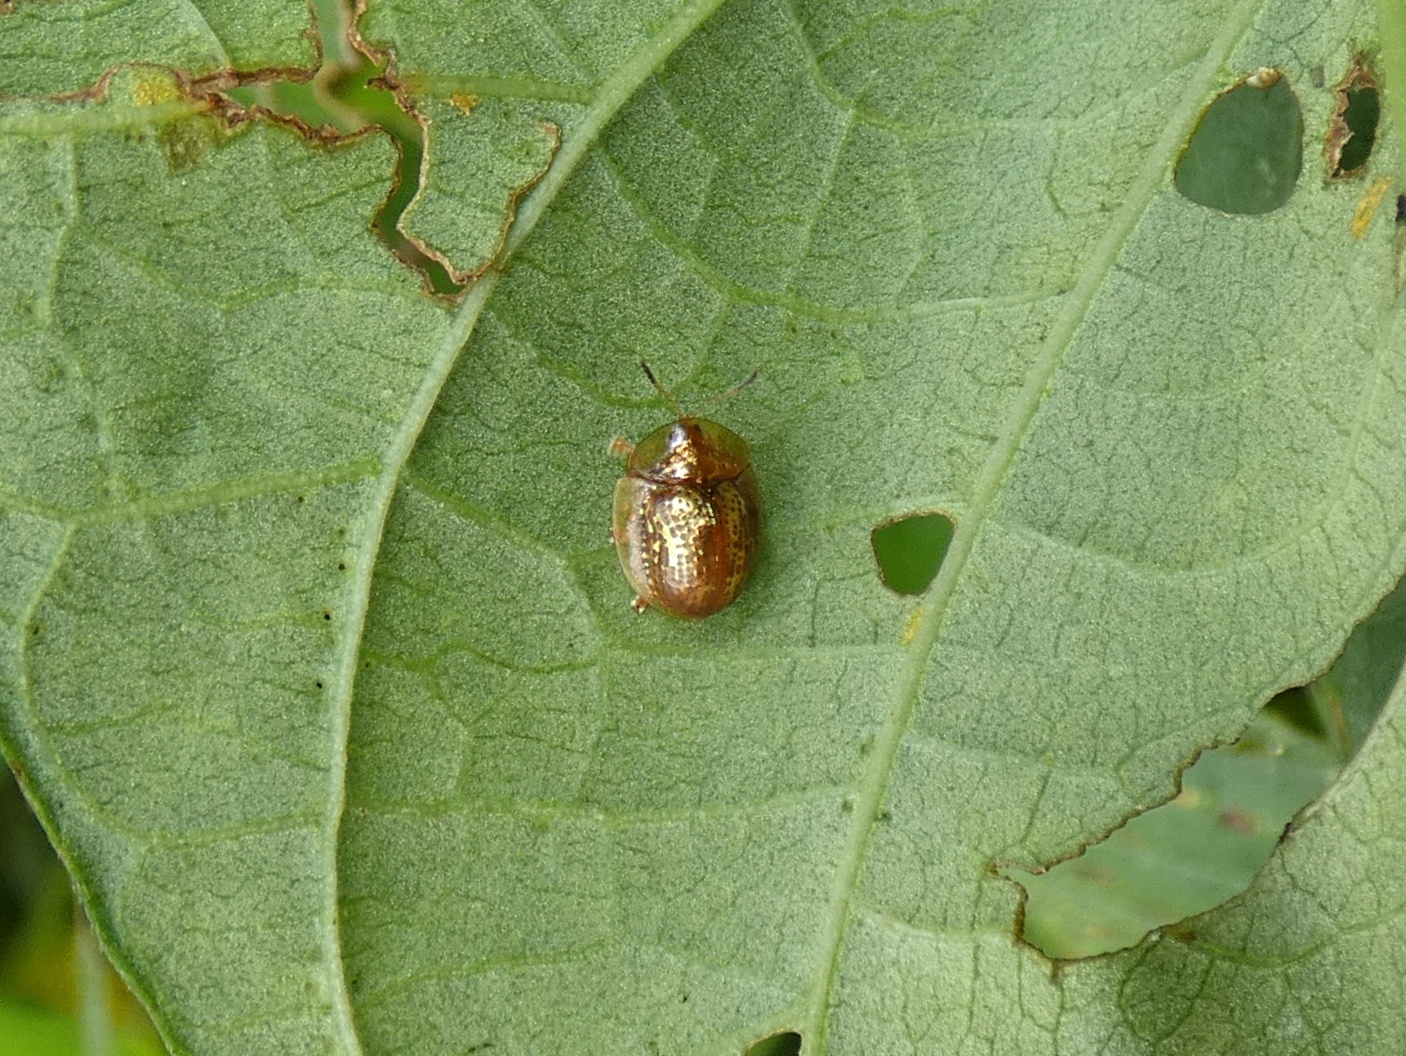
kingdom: Animalia
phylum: Arthropoda
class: Insecta
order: Coleoptera
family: Chrysomelidae
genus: Agroiconota
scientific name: Agroiconota propinqua
